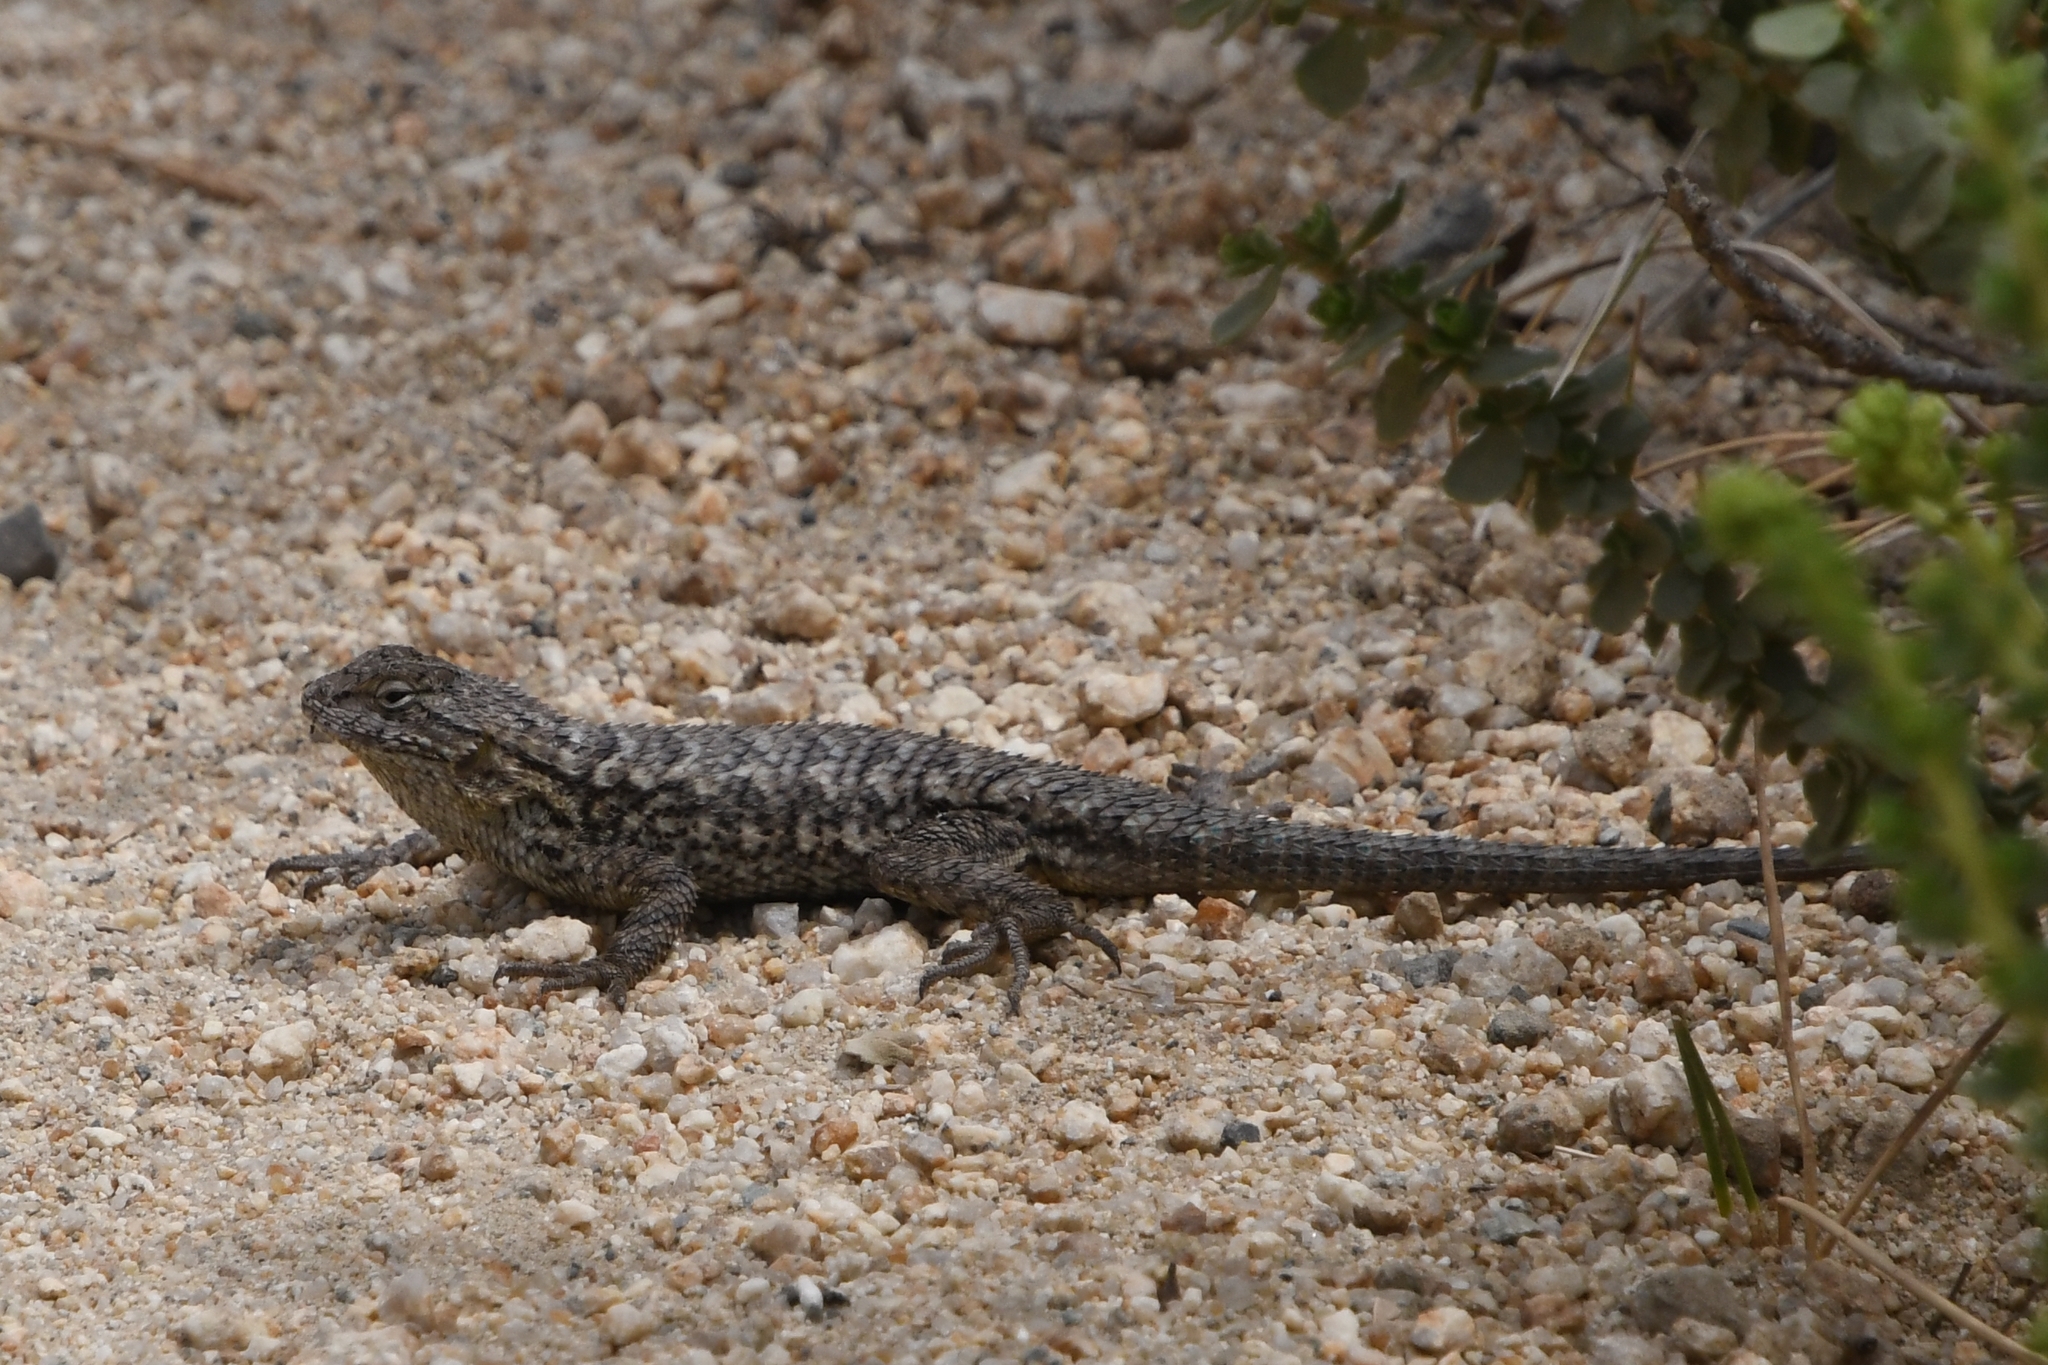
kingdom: Animalia
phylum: Chordata
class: Squamata
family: Phrynosomatidae
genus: Sceloporus
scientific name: Sceloporus occidentalis
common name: Western fence lizard
